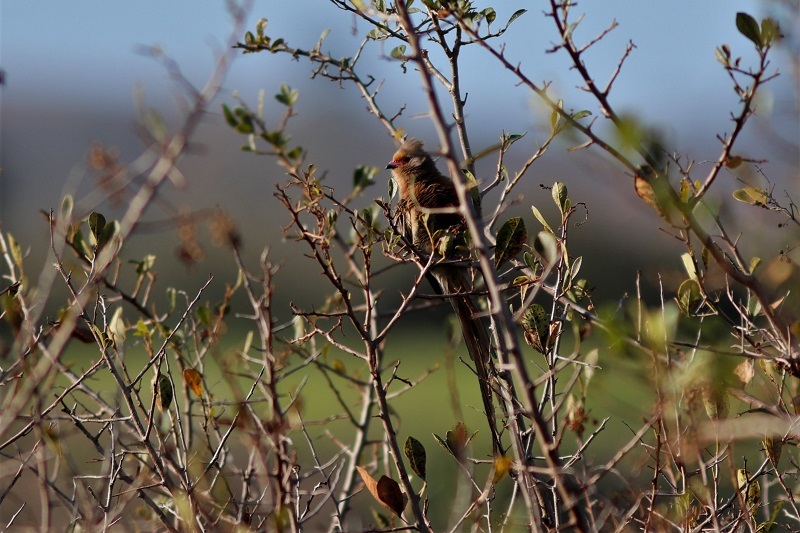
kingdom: Animalia
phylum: Chordata
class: Aves
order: Coliiformes
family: Coliidae
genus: Urocolius
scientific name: Urocolius indicus
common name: Red-faced mousebird
